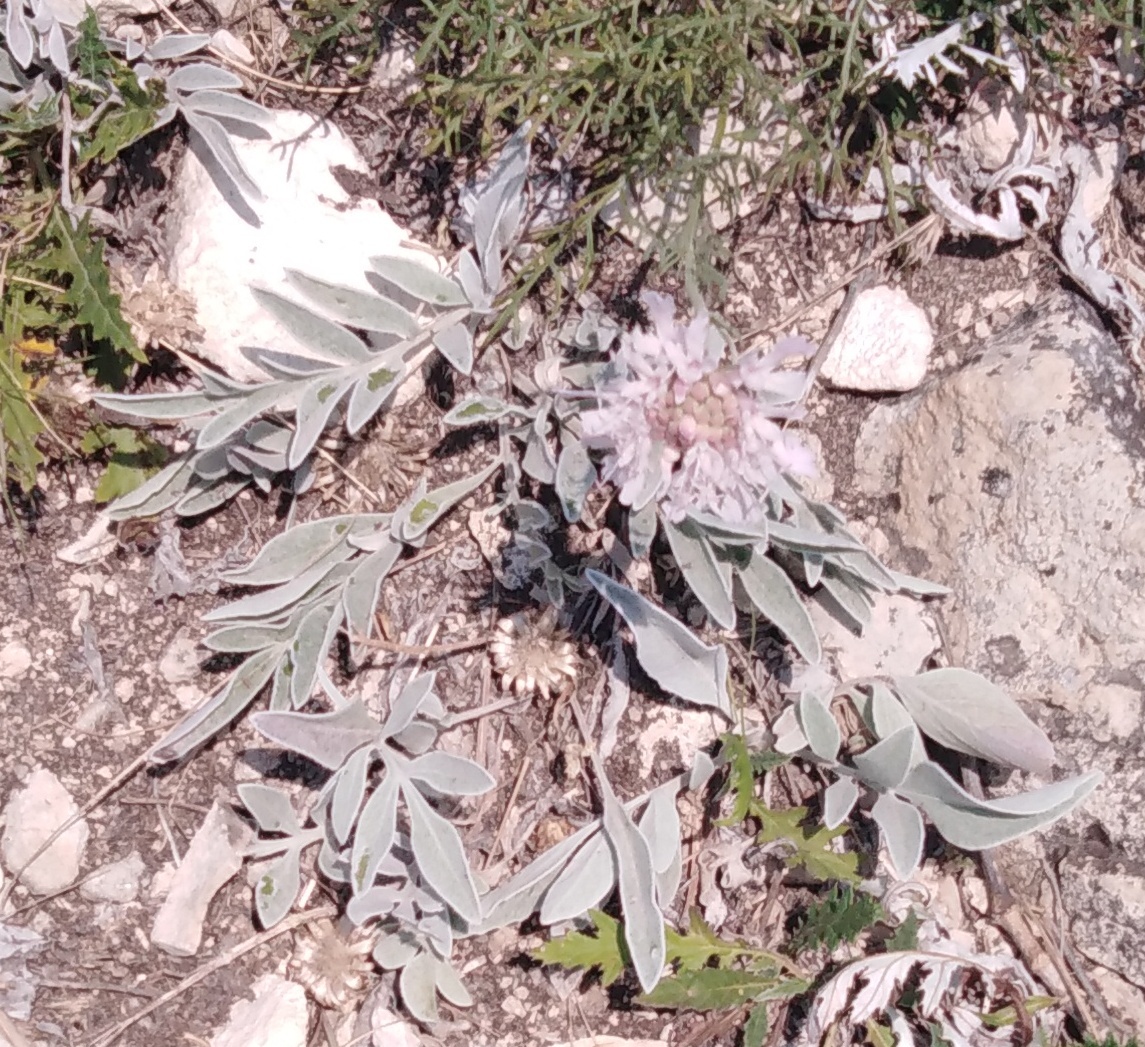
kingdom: Plantae
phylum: Tracheophyta
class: Magnoliopsida
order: Dipsacales
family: Caprifoliaceae
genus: Lomelosia
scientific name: Lomelosia isetensis
